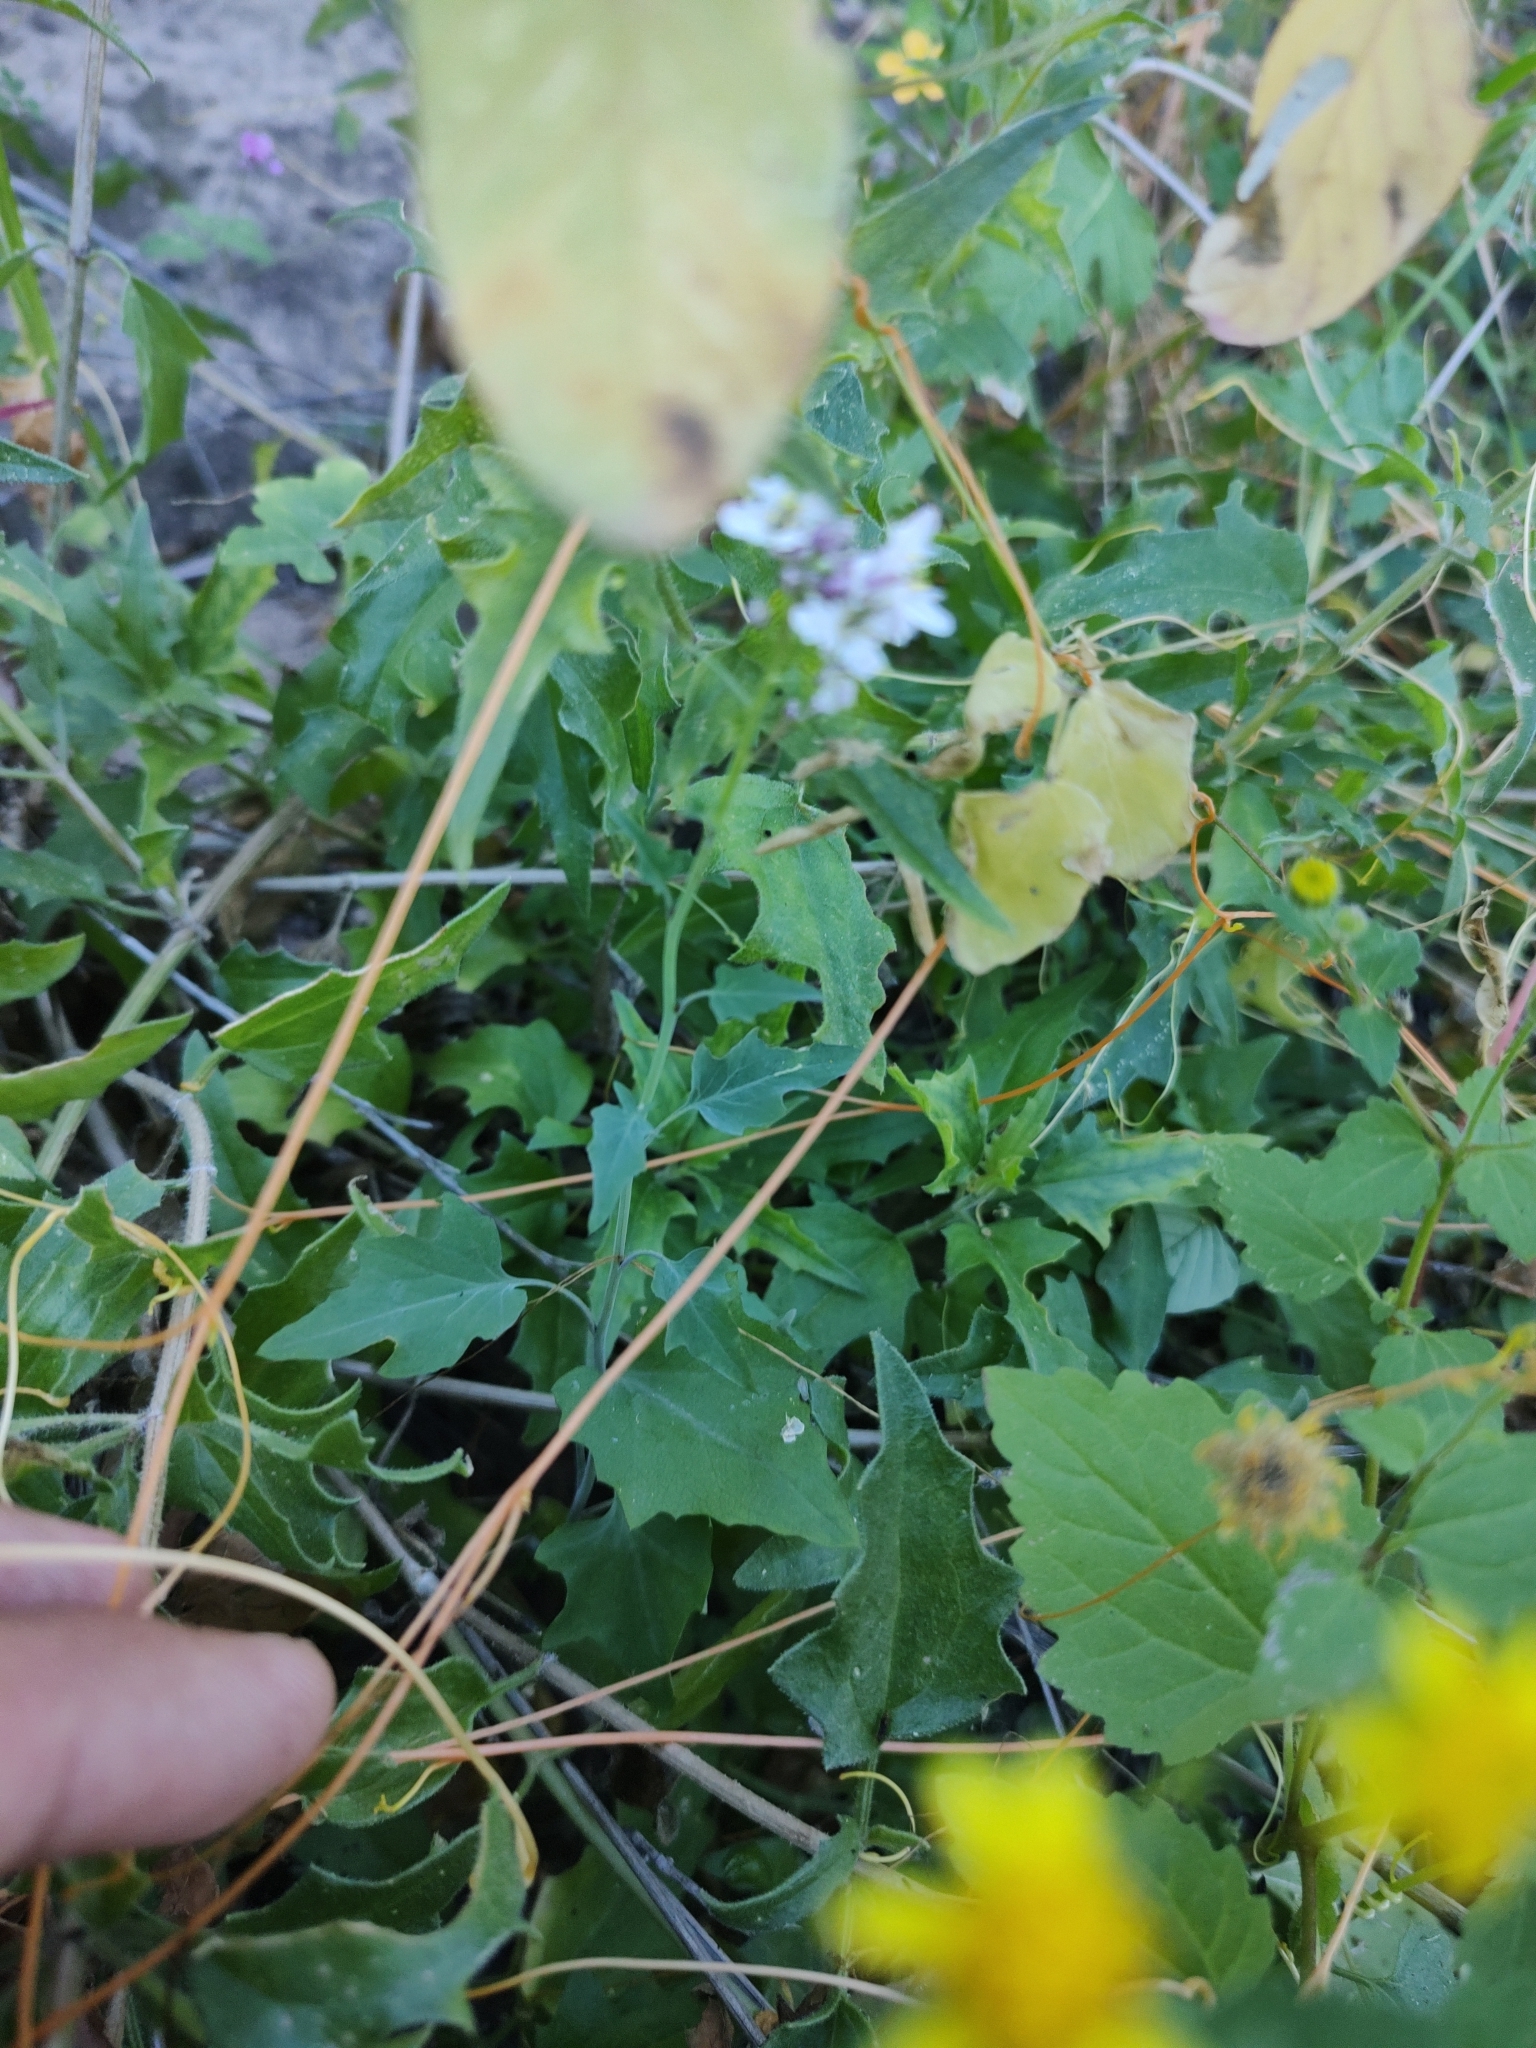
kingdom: Plantae
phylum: Tracheophyta
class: Magnoliopsida
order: Brassicales
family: Brassicaceae
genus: Dryopetalon
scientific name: Dryopetalon palmeri
